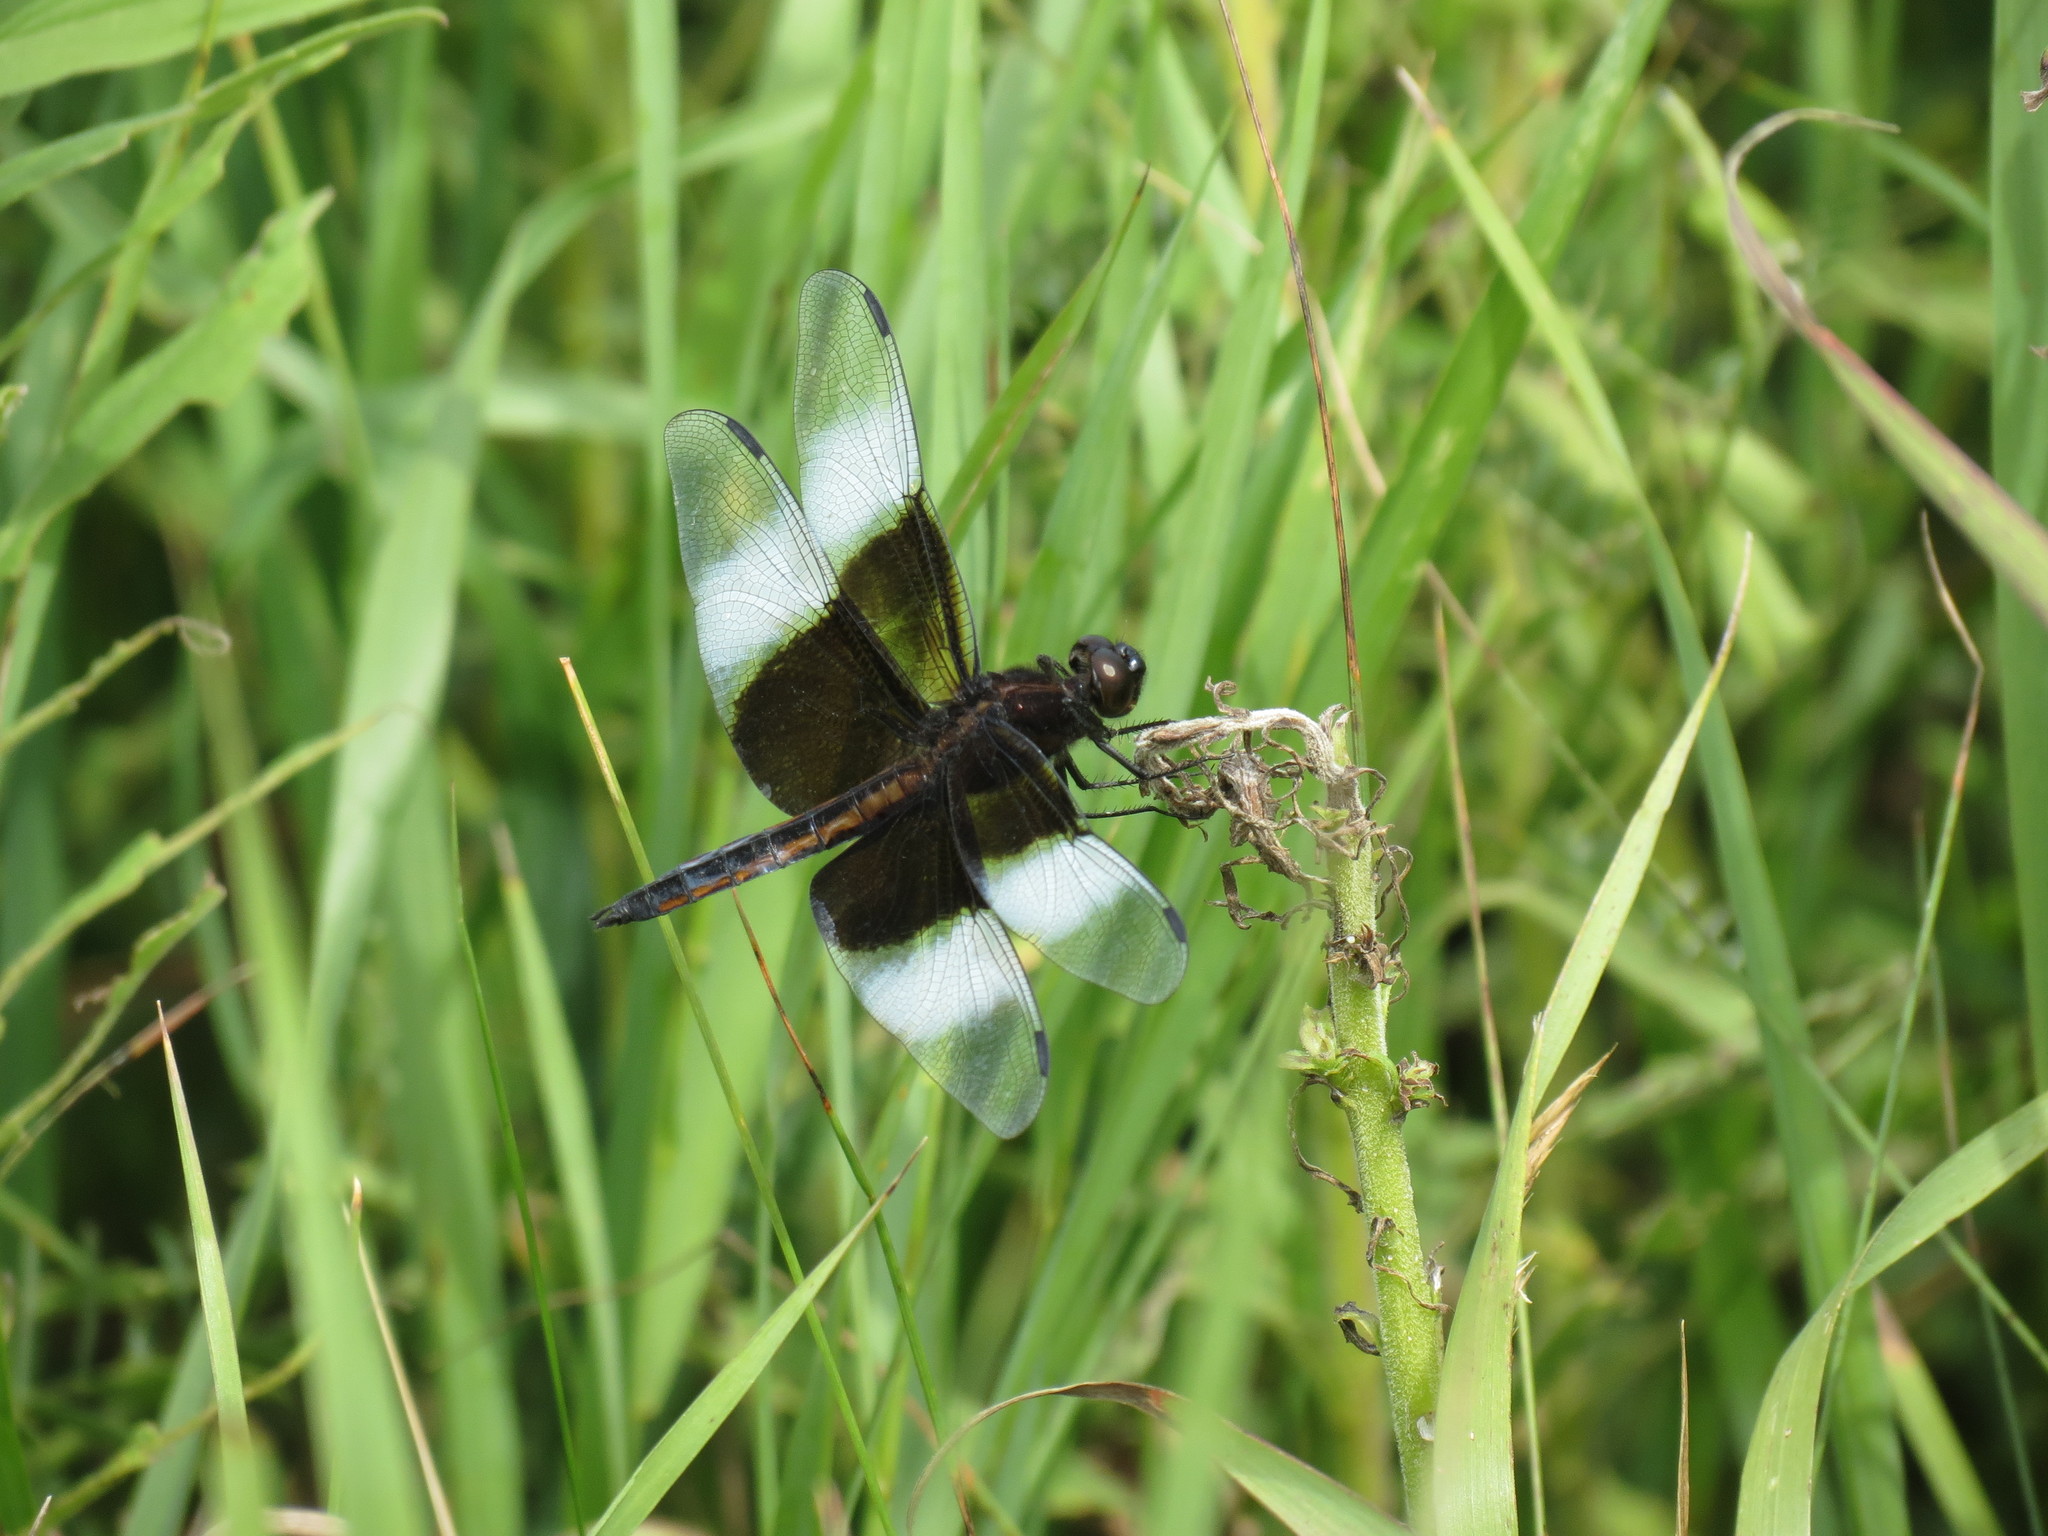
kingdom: Animalia
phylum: Arthropoda
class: Insecta
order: Odonata
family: Libellulidae
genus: Libellula
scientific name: Libellula luctuosa
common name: Widow skimmer
